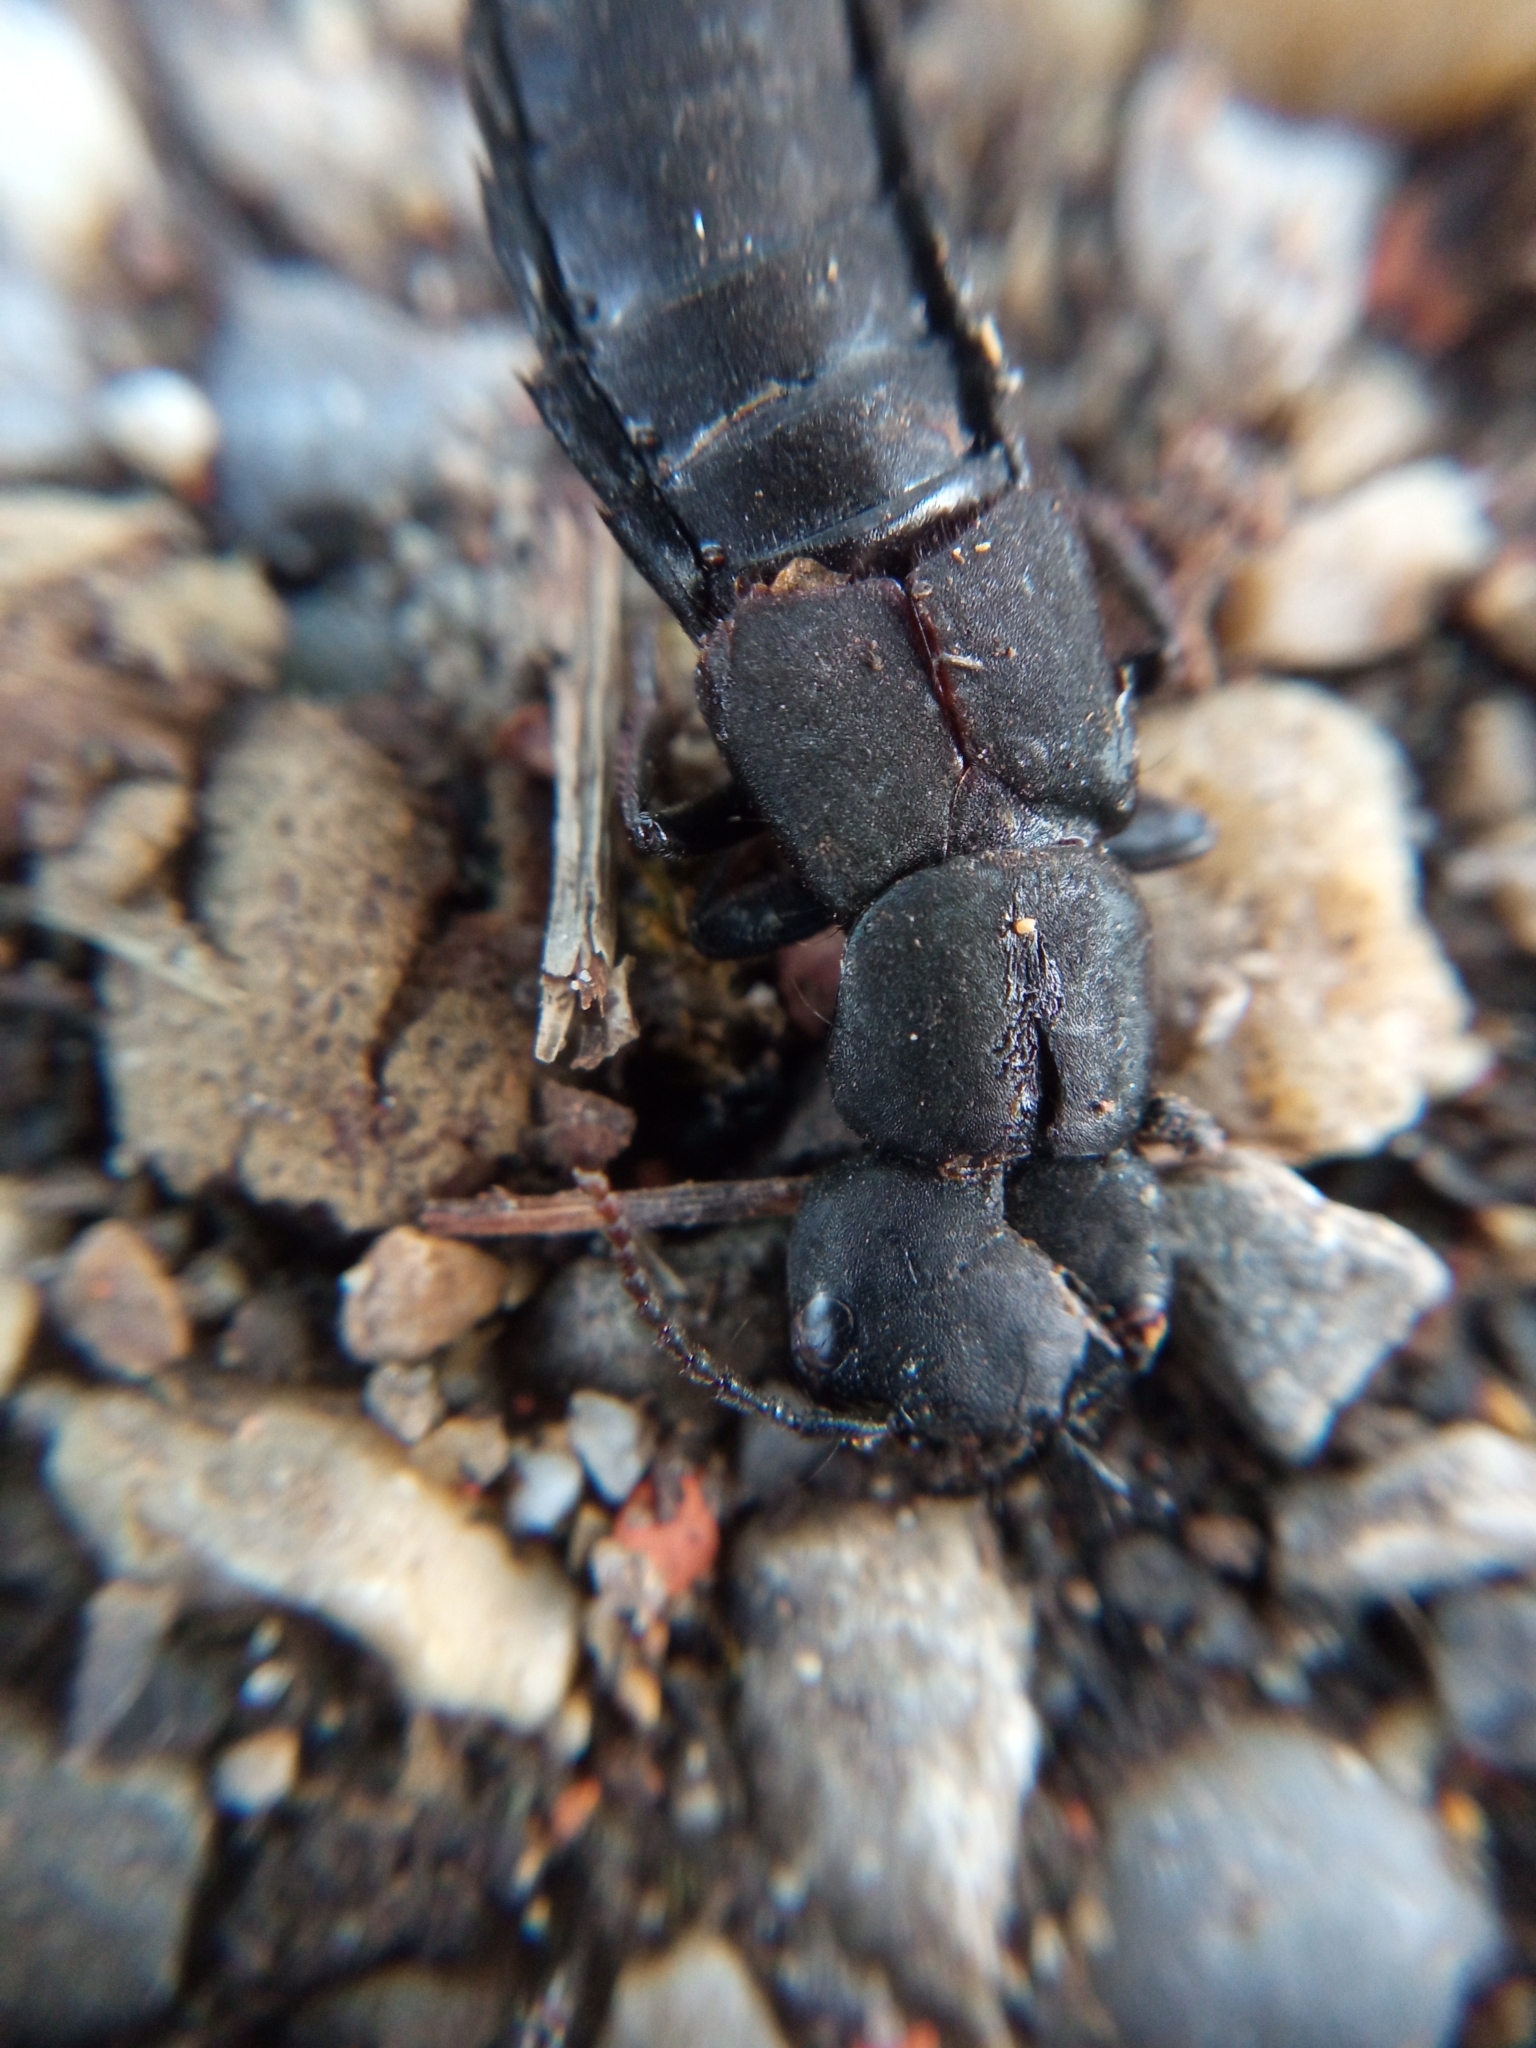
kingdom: Animalia
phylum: Arthropoda
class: Insecta
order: Coleoptera
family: Staphylinidae
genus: Ocypus
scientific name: Ocypus olens
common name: Devil's coach-horse
